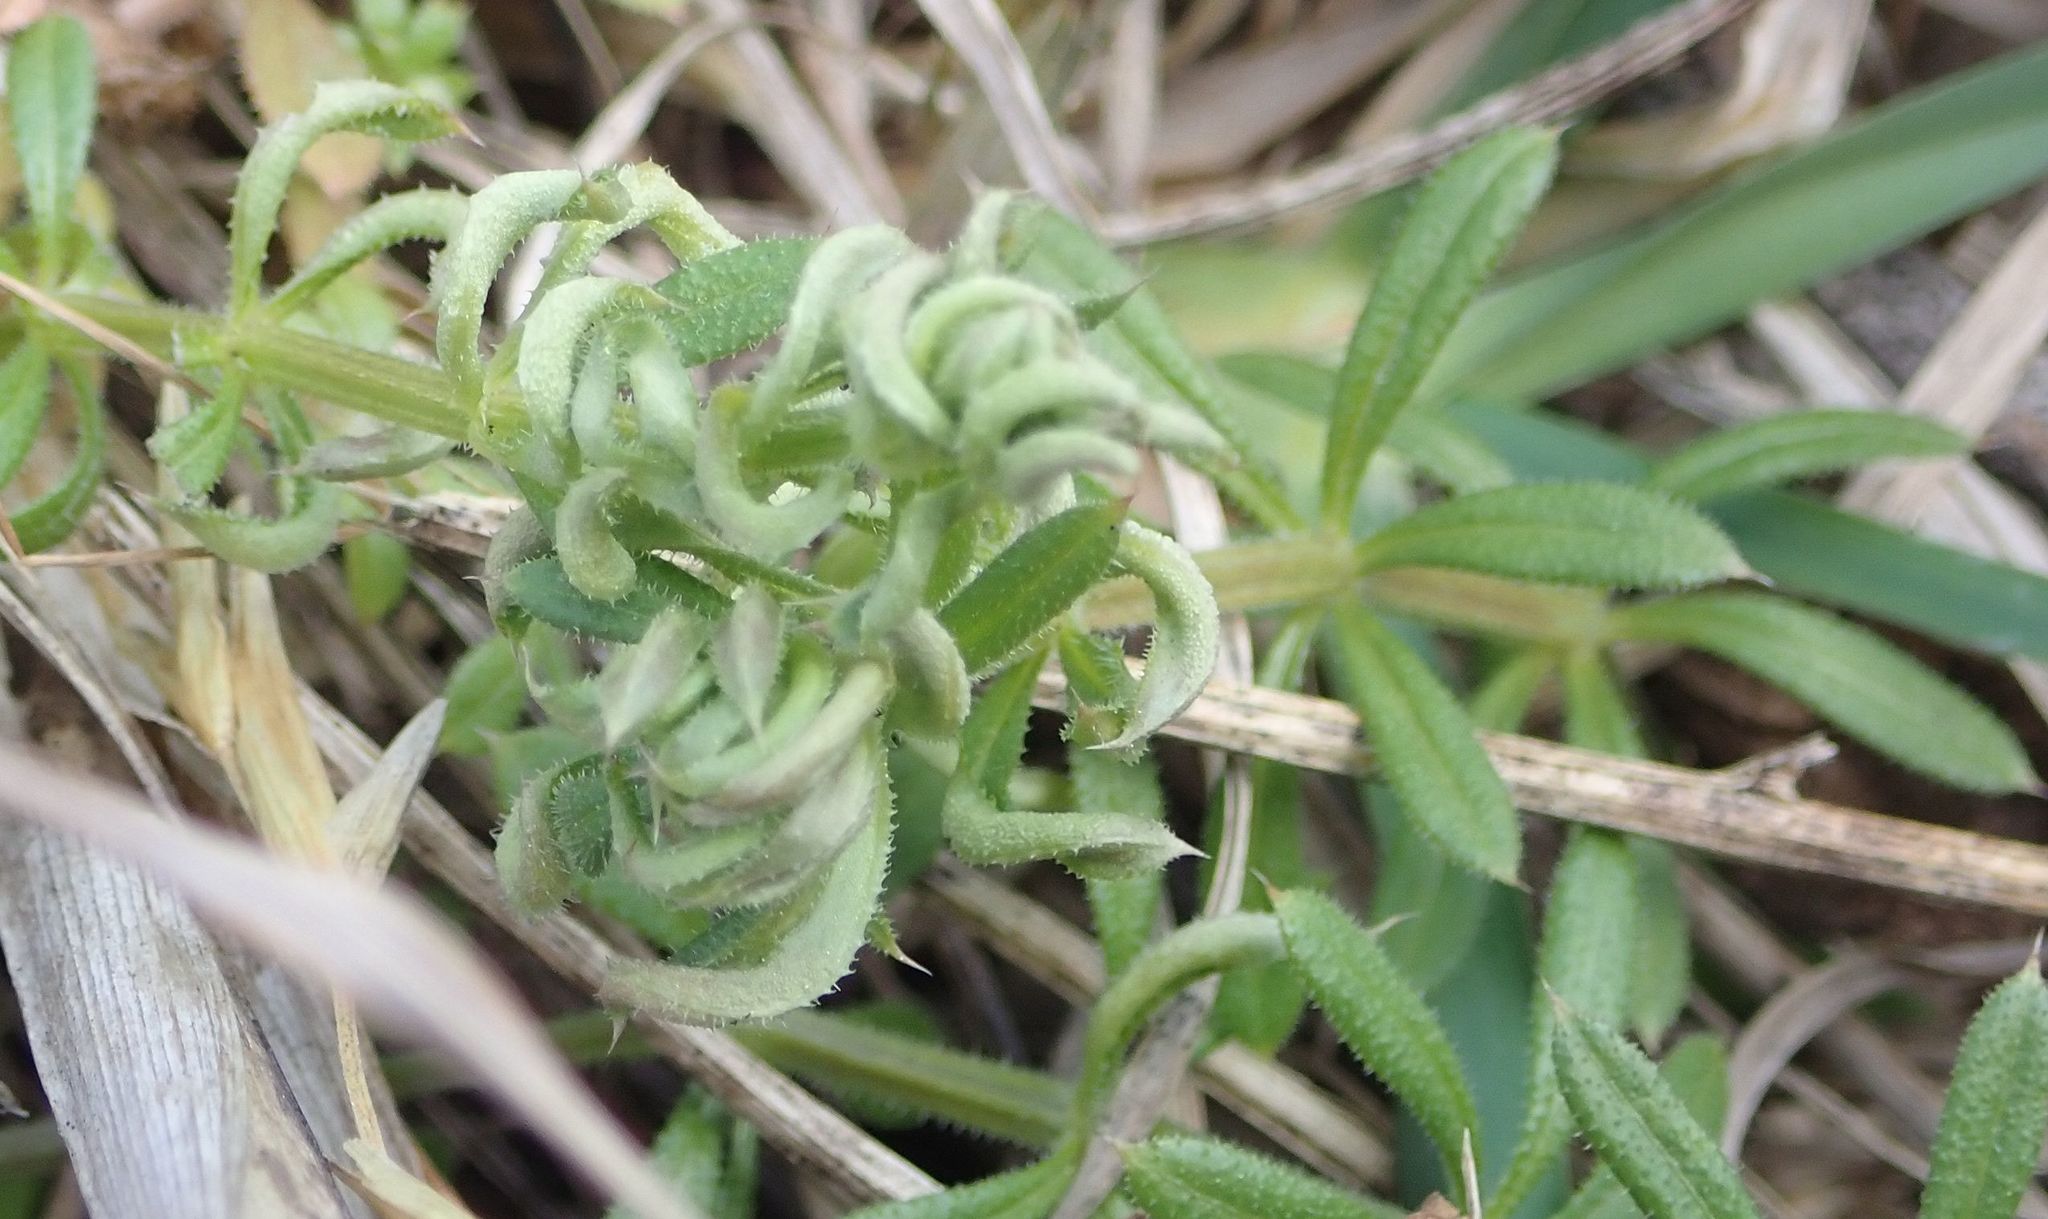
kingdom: Plantae
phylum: Tracheophyta
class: Magnoliopsida
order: Gentianales
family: Rubiaceae
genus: Galium
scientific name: Galium aparine
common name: Cleavers
